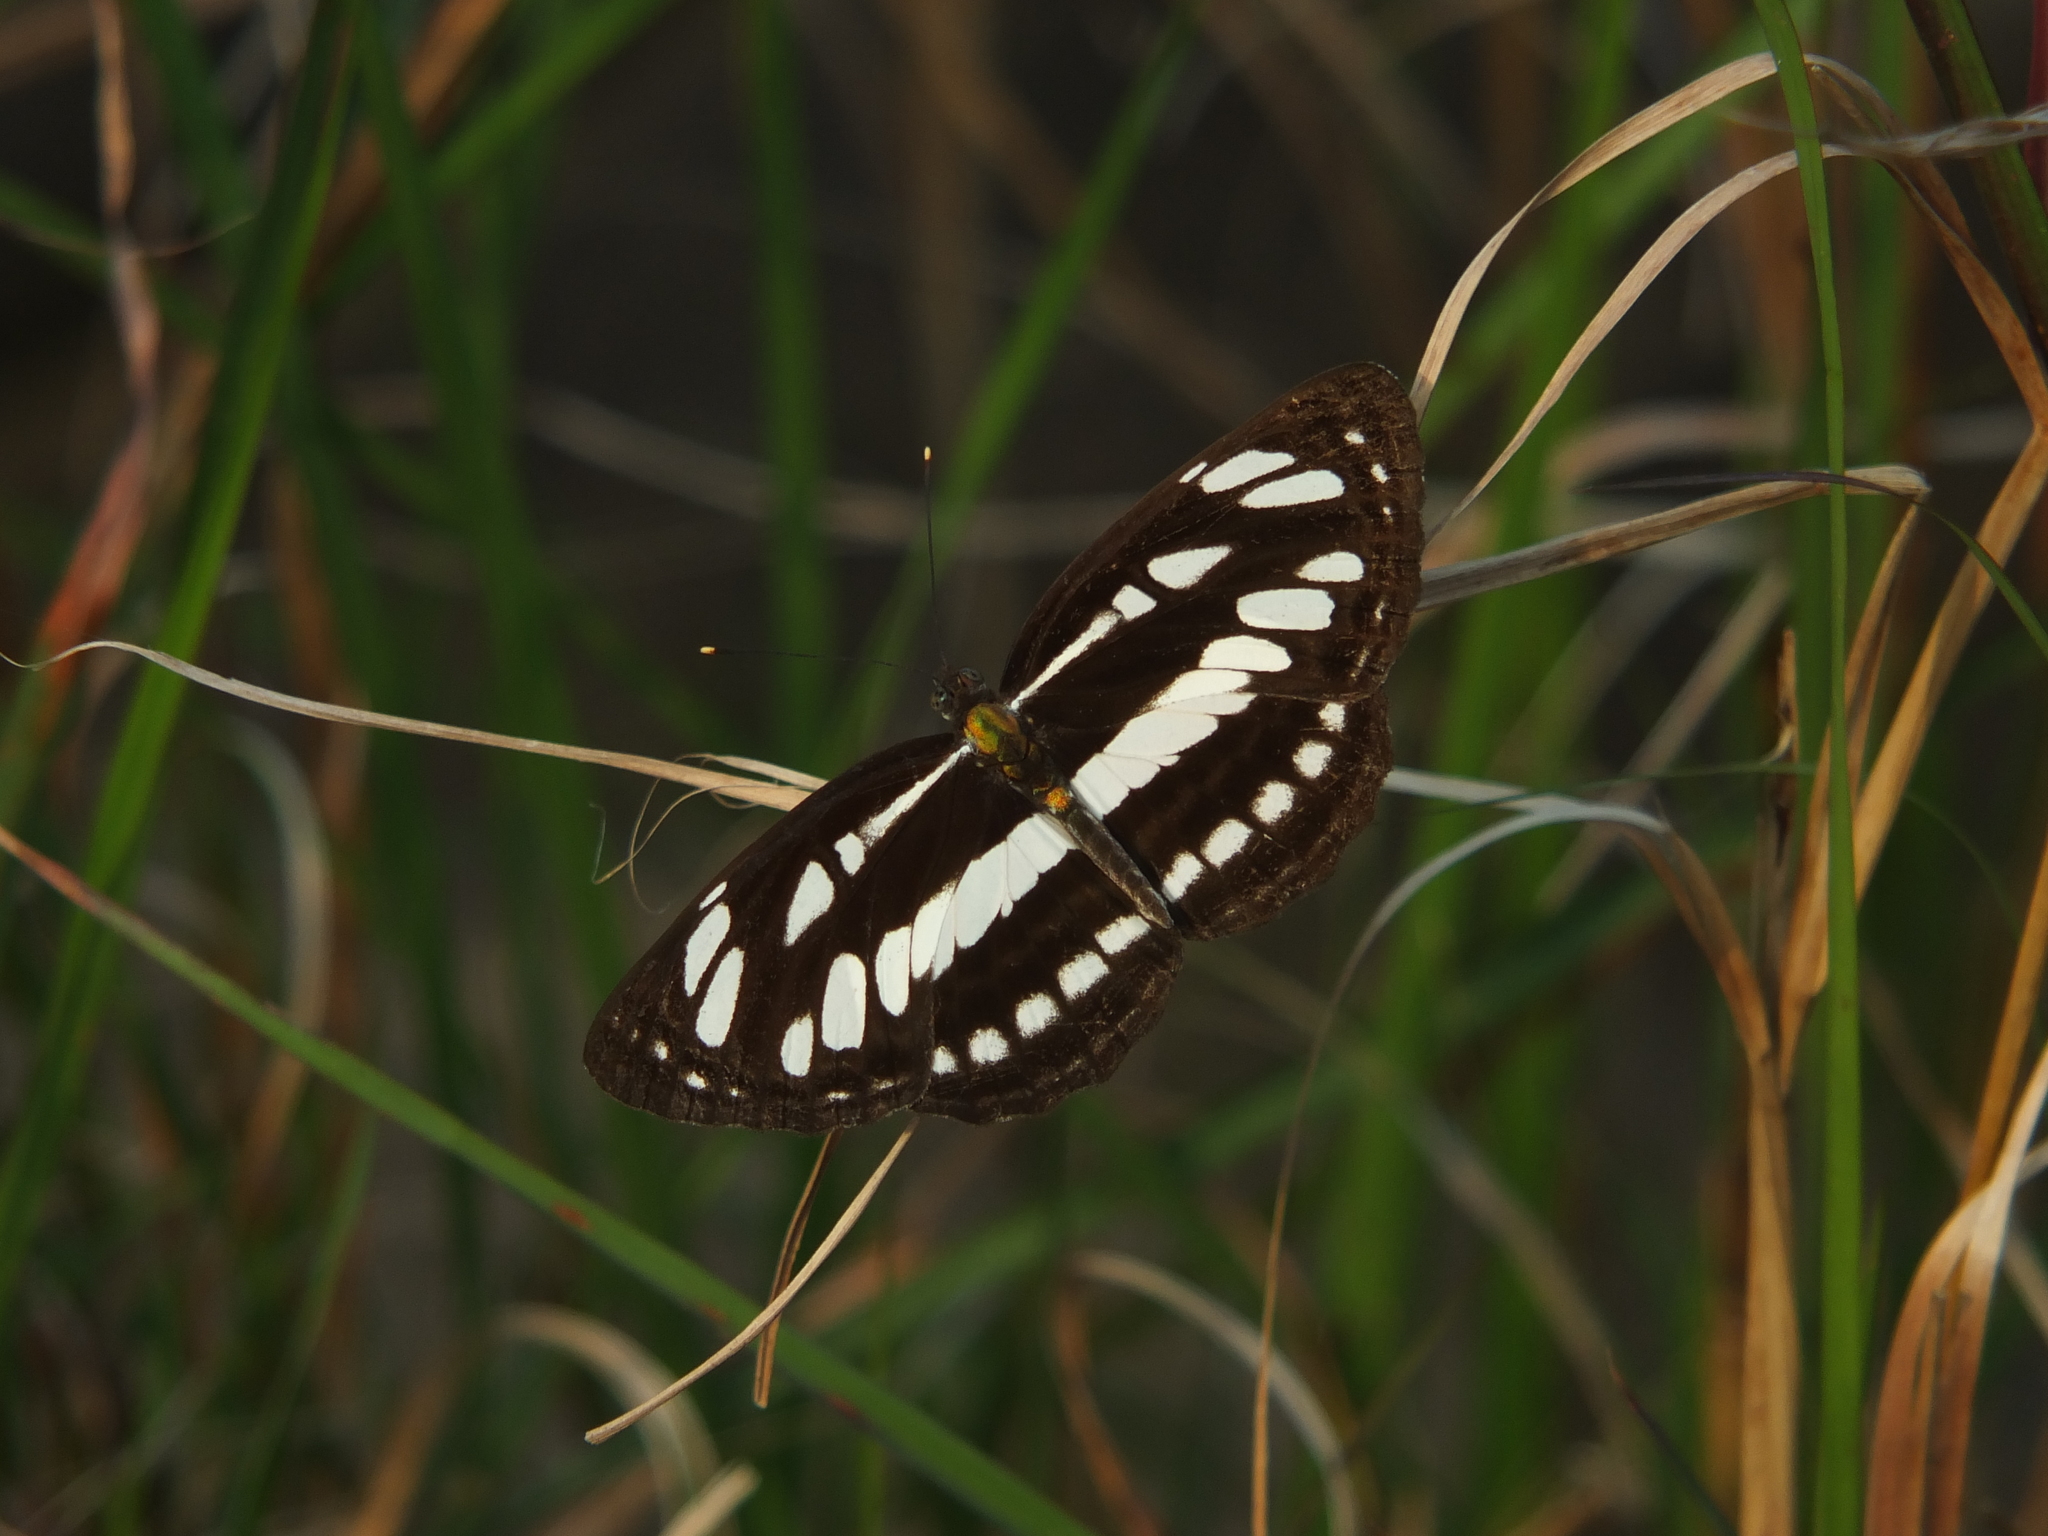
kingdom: Animalia
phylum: Arthropoda
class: Insecta
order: Lepidoptera
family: Nymphalidae
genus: Neptis
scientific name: Neptis hylas
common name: Common sailer
